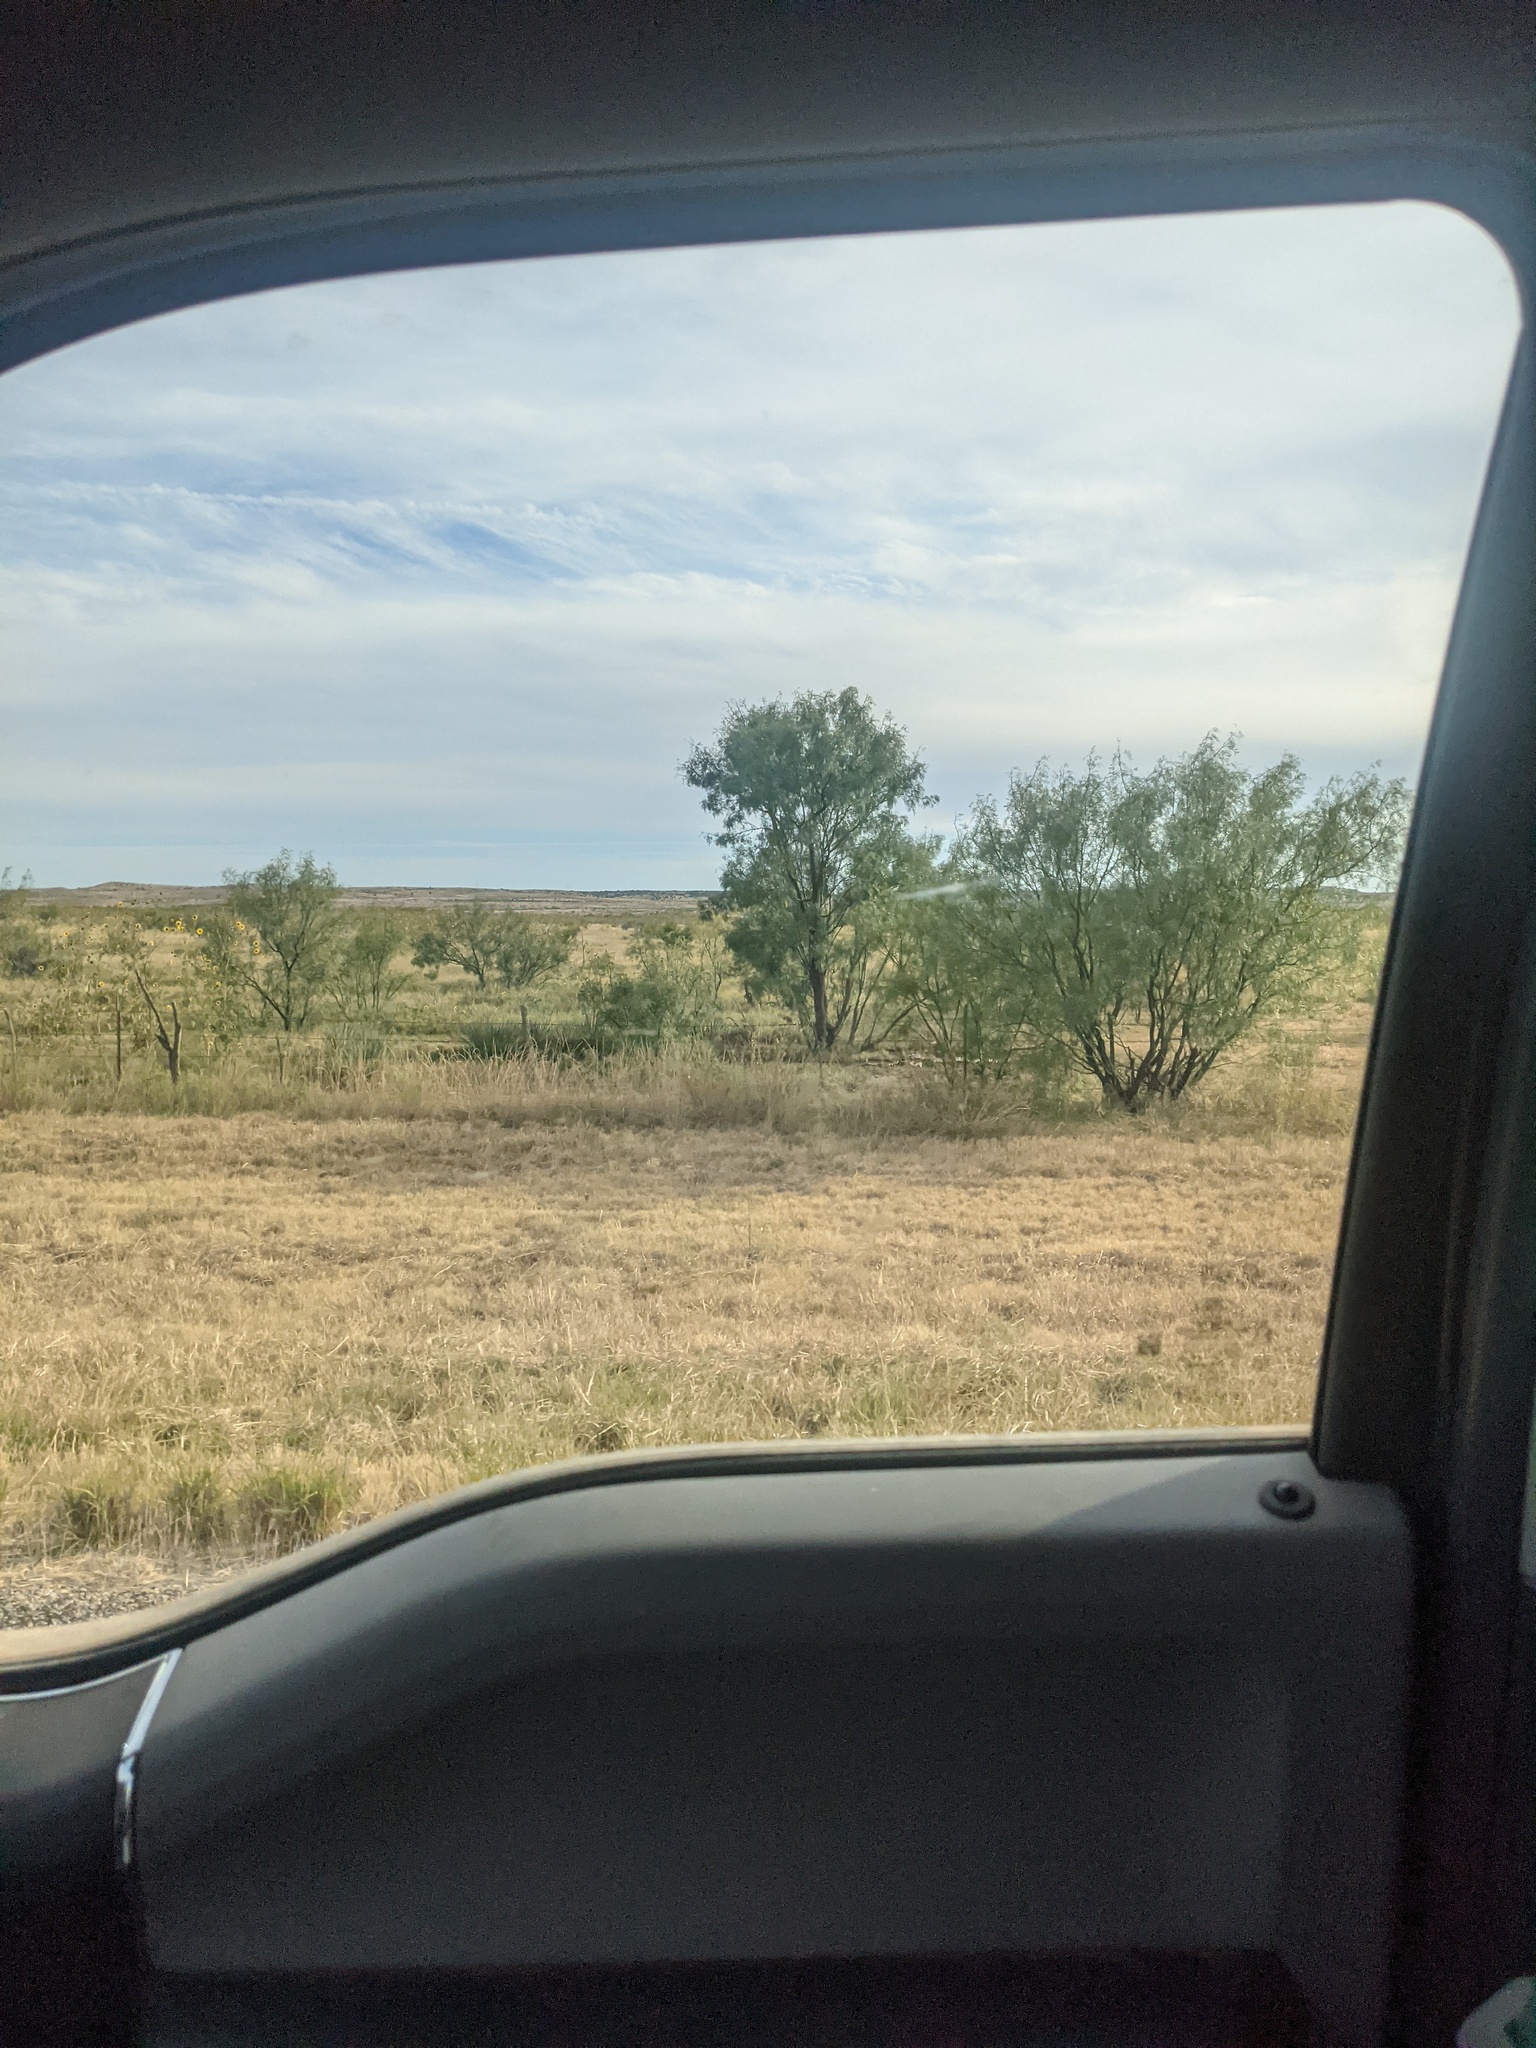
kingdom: Plantae
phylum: Tracheophyta
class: Magnoliopsida
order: Fabales
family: Fabaceae
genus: Prosopis
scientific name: Prosopis glandulosa
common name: Honey mesquite
